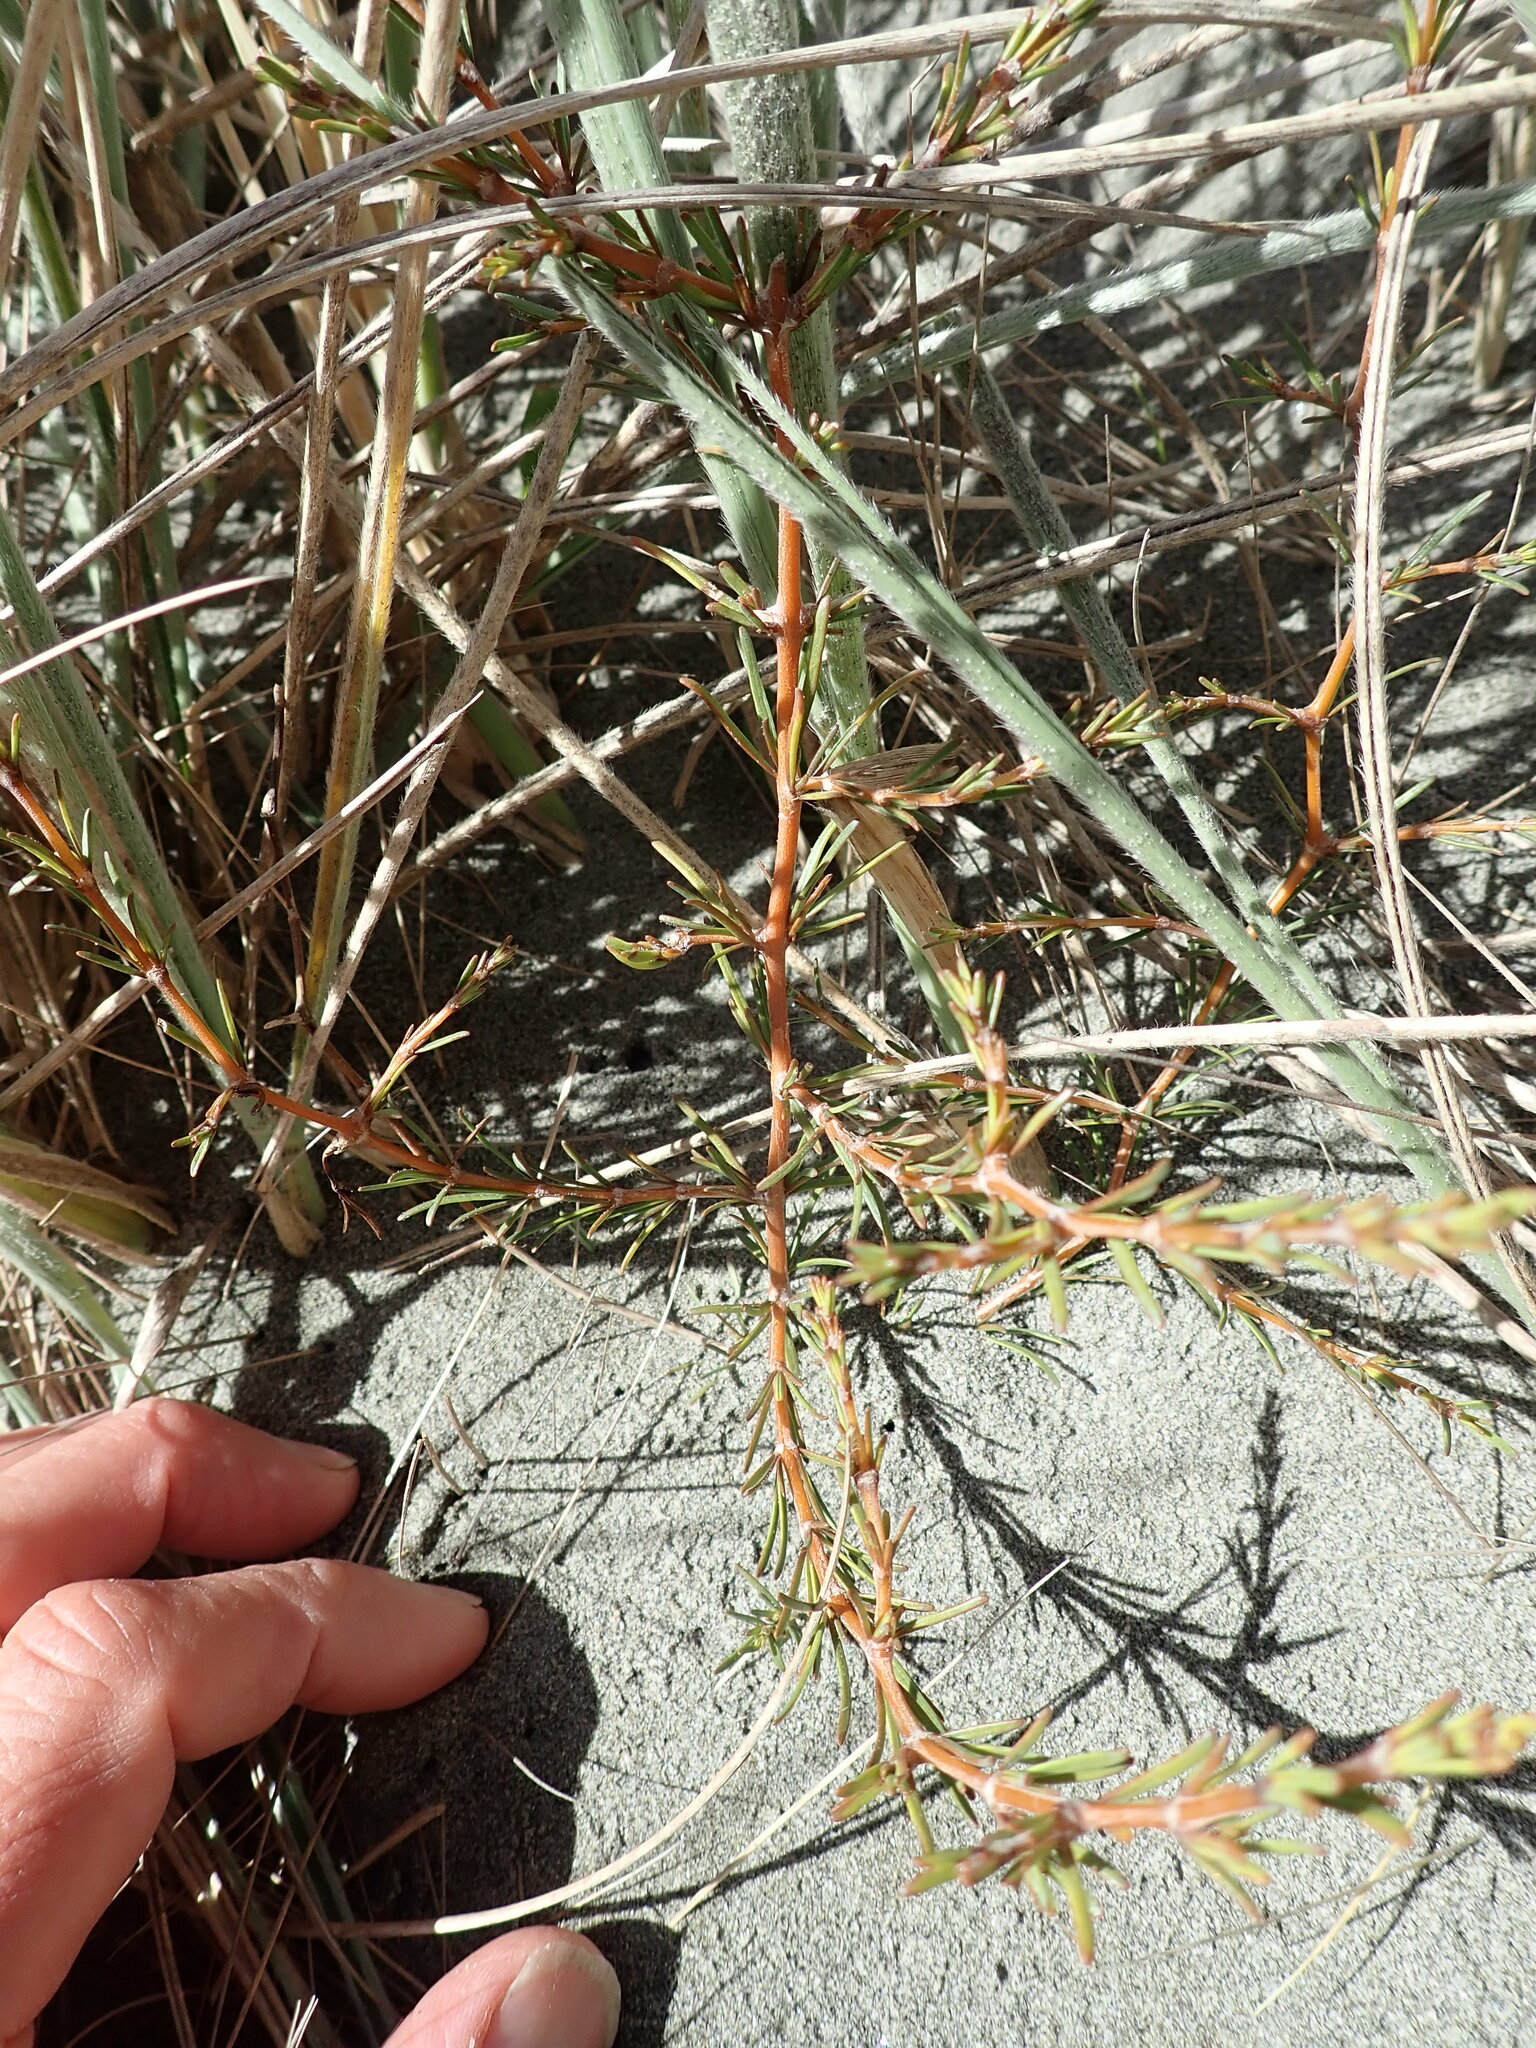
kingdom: Plantae
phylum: Tracheophyta
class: Magnoliopsida
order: Gentianales
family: Rubiaceae
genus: Coprosma
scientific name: Coprosma acerosa
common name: Sand coprosma
